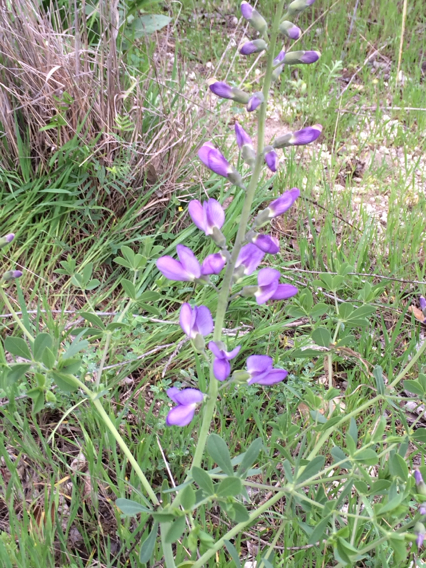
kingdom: Plantae
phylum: Tracheophyta
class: Magnoliopsida
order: Fabales
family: Fabaceae
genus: Baptisia
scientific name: Baptisia australis
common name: Blue false indigo
